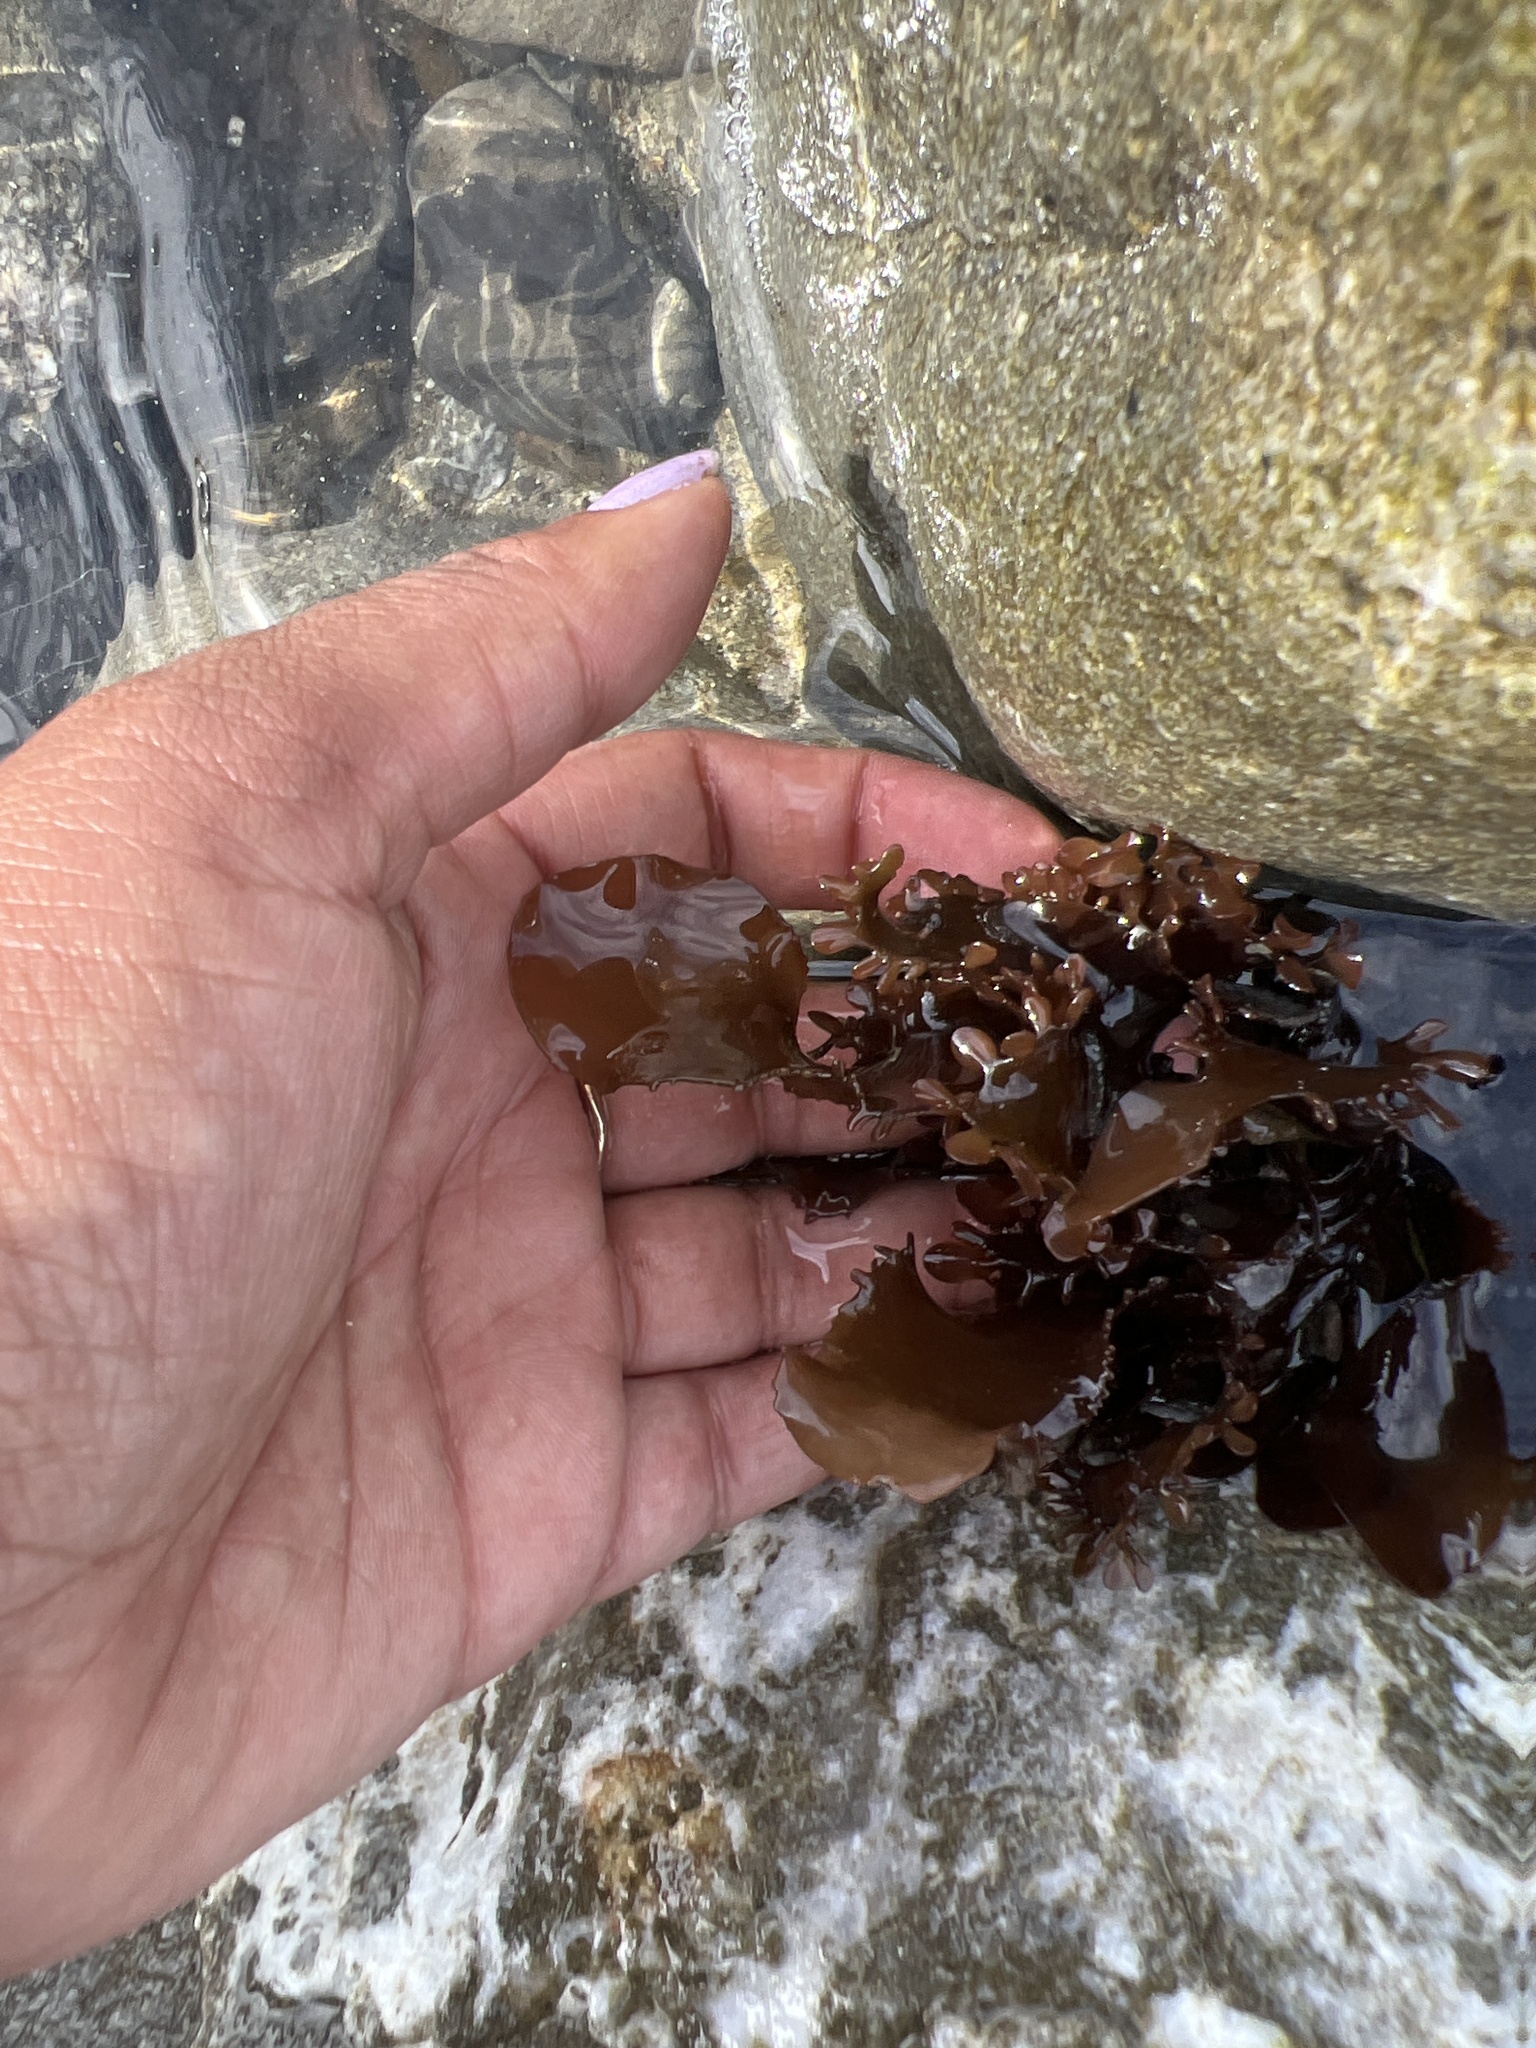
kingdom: Plantae
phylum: Rhodophyta
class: Florideophyceae
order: Ceramiales
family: Delesseriaceae
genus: Cryptopleura
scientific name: Cryptopleura ruprechtiana
